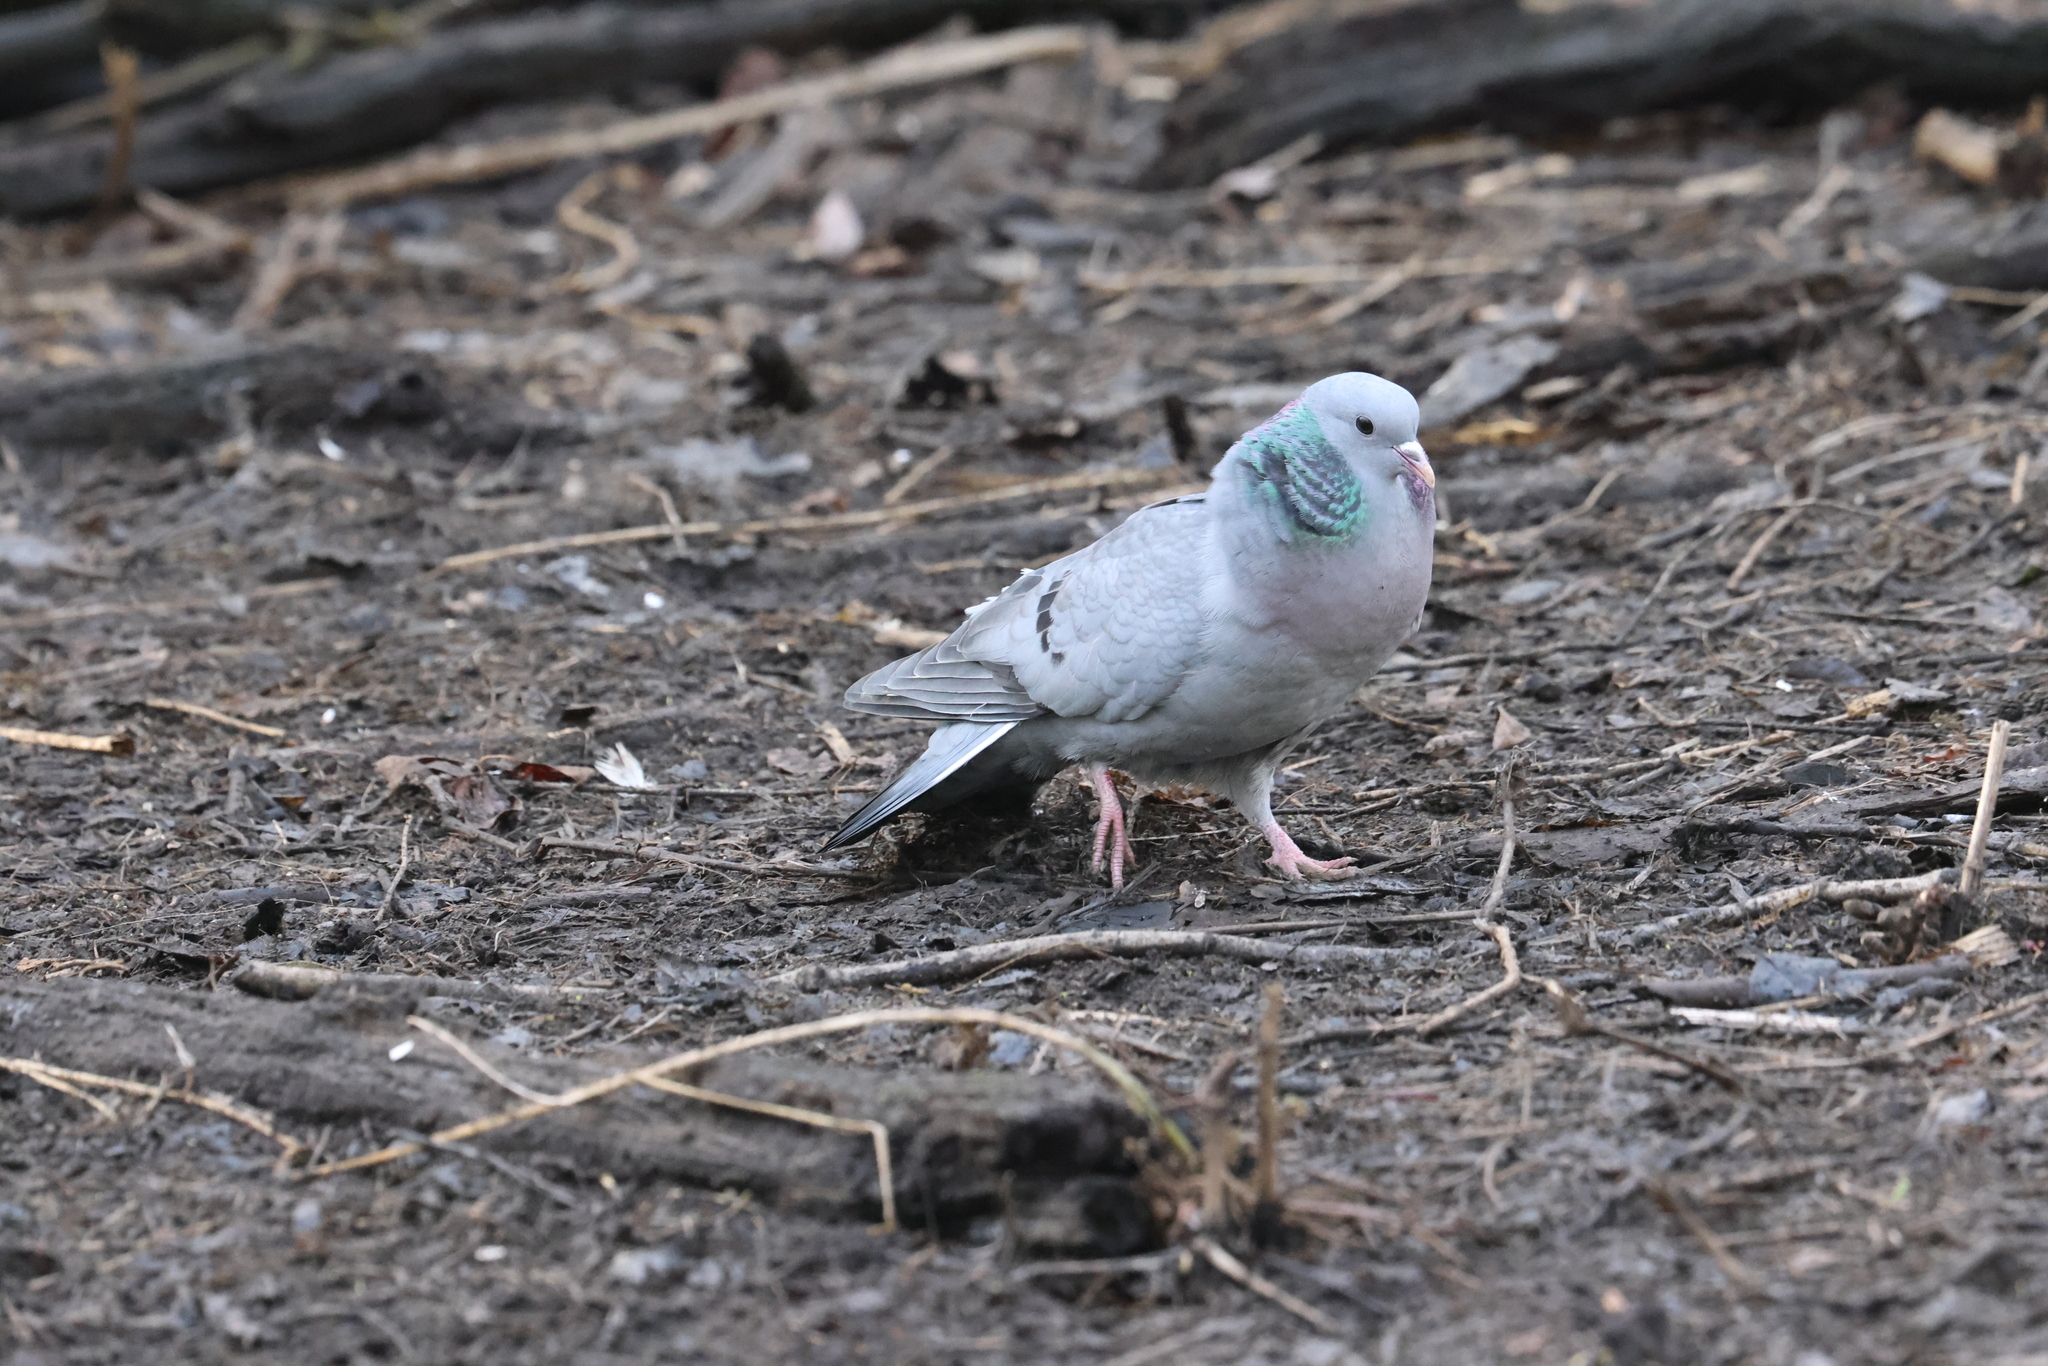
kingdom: Animalia
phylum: Chordata
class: Aves
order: Columbiformes
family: Columbidae
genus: Columba
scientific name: Columba oenas
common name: Stock dove
